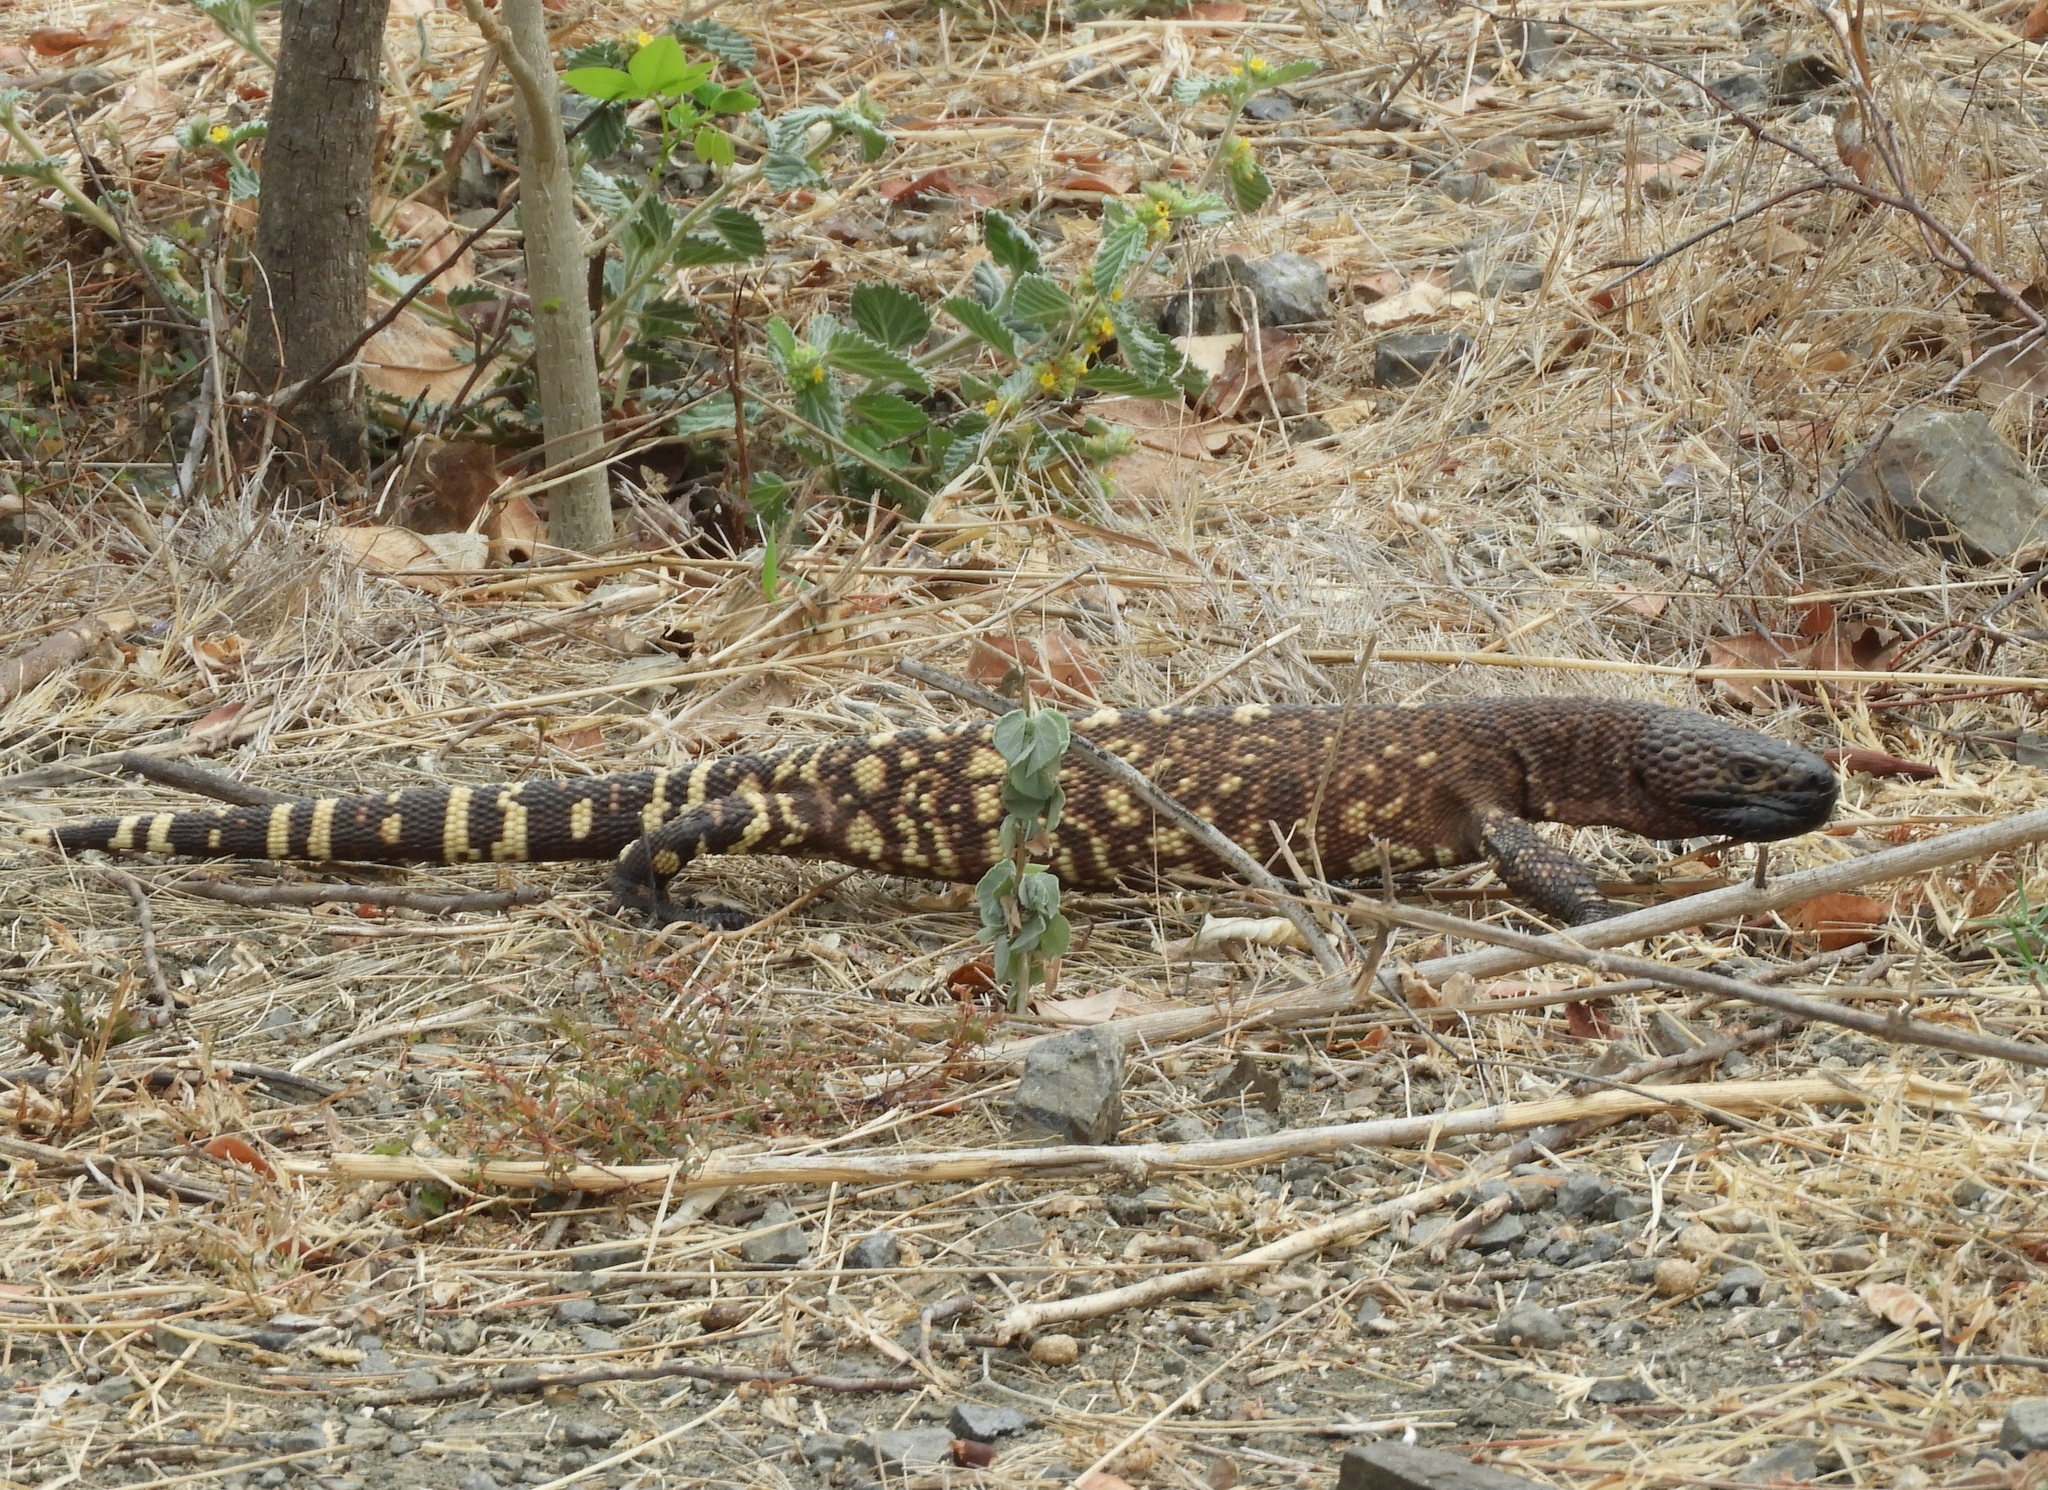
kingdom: Animalia
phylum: Chordata
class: Squamata
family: Helodermatidae
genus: Heloderma
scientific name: Heloderma horridum
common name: Mexican beaded lizard
